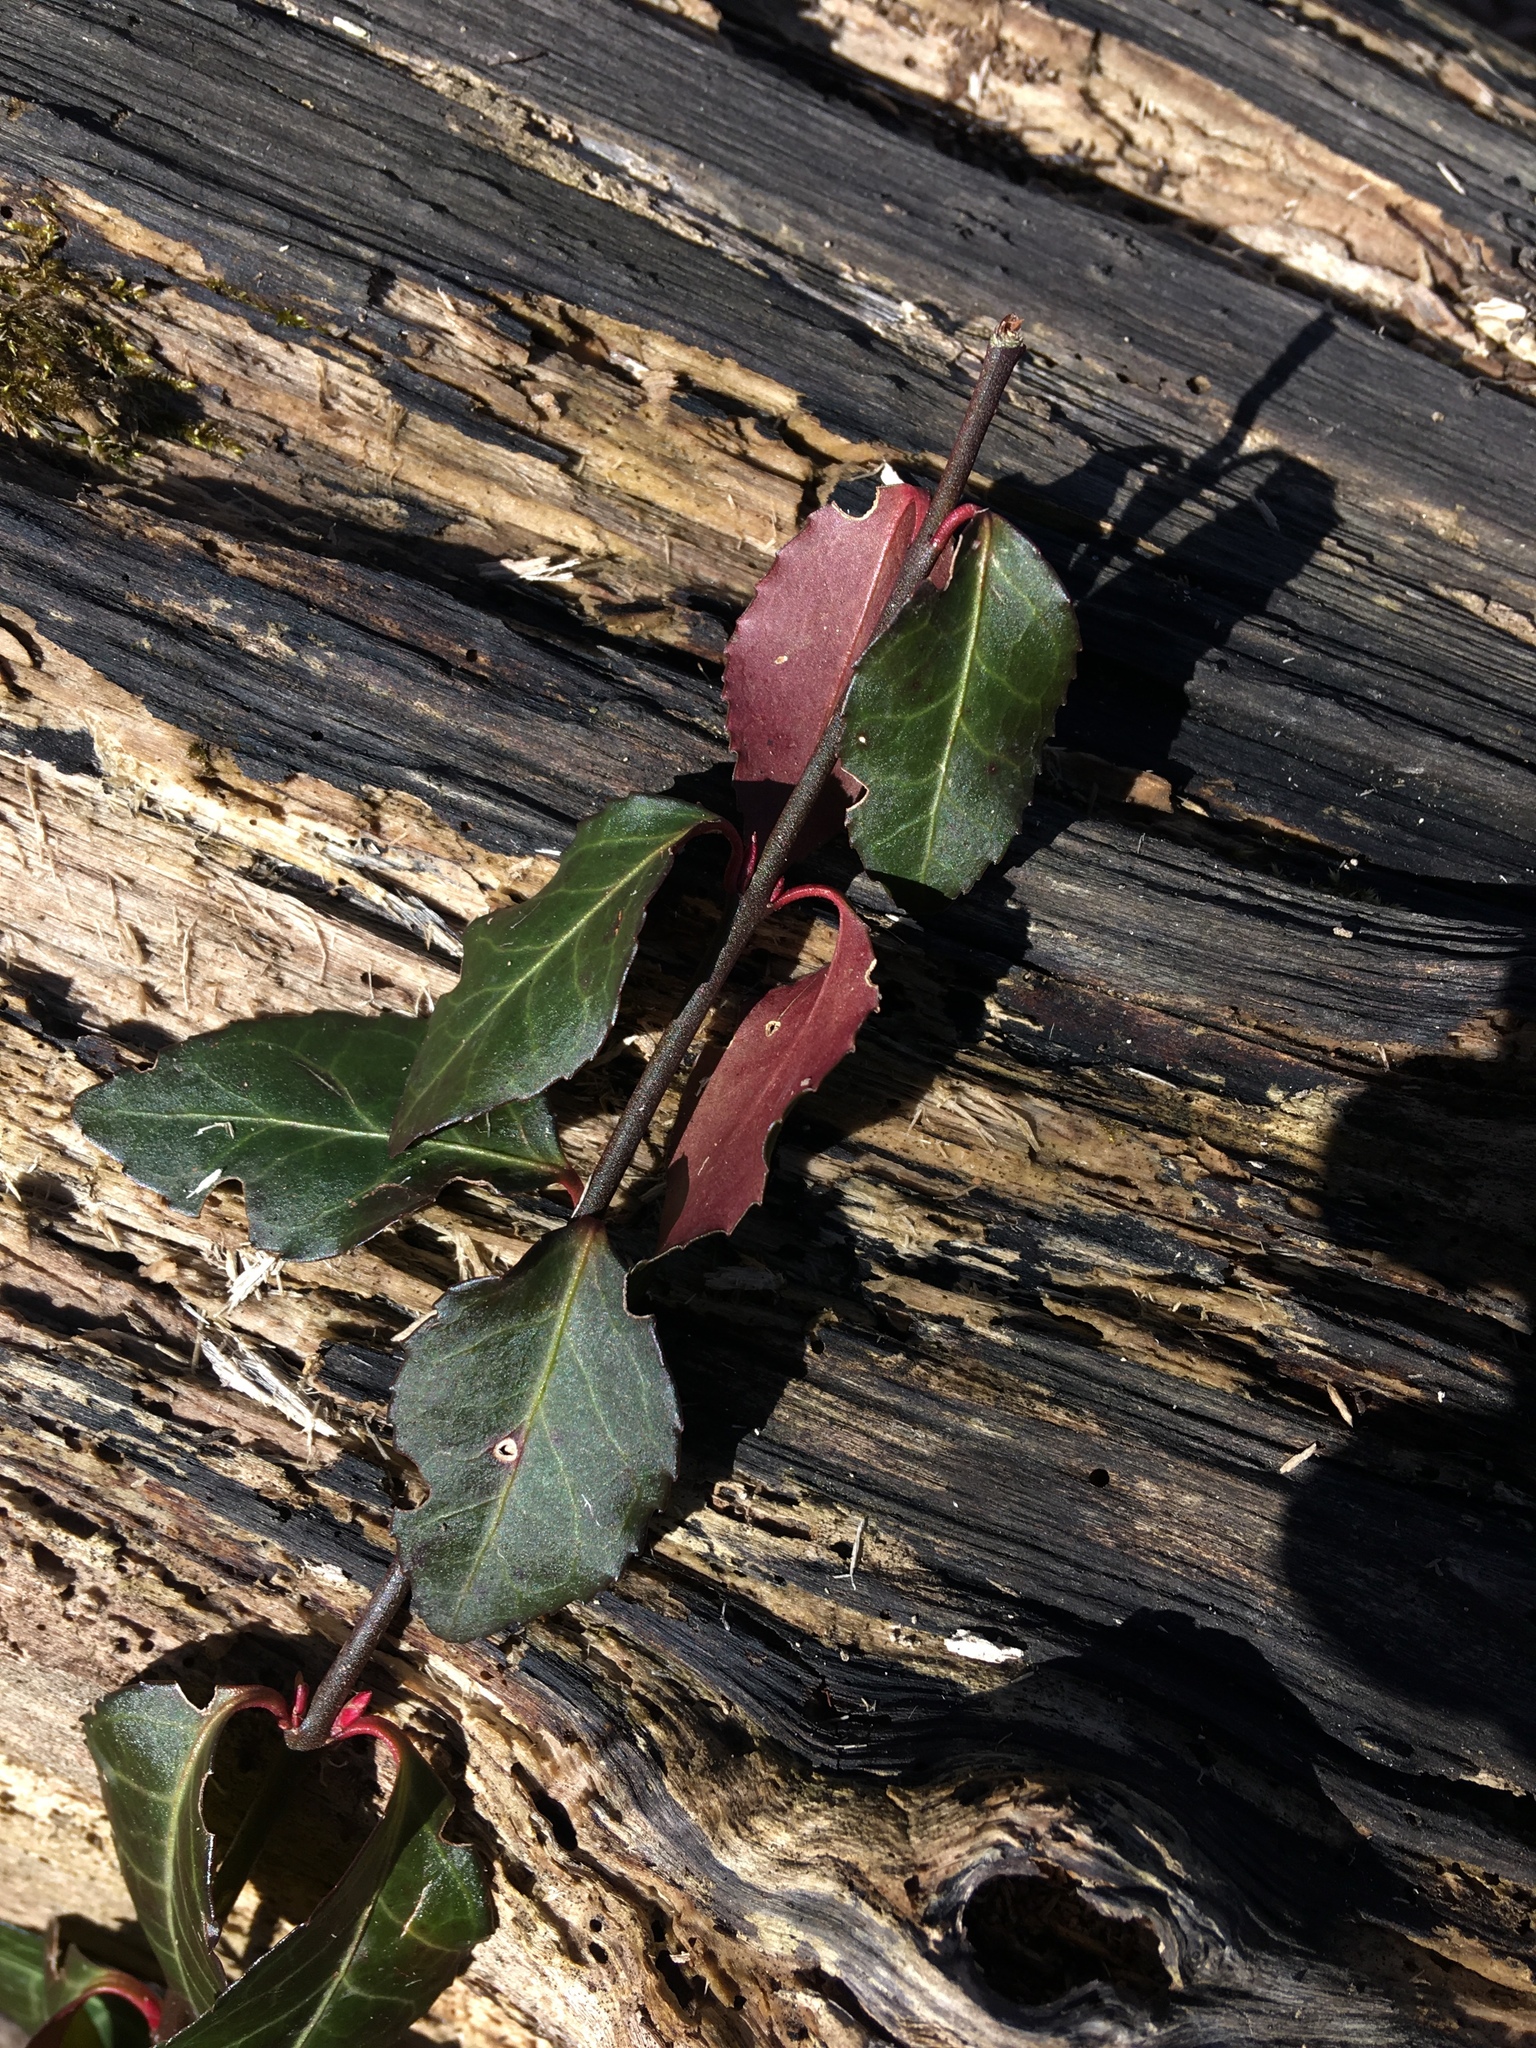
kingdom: Plantae
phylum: Tracheophyta
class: Magnoliopsida
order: Celastrales
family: Celastraceae
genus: Euonymus
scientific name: Euonymus fortunei
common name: Climbing euonymus
